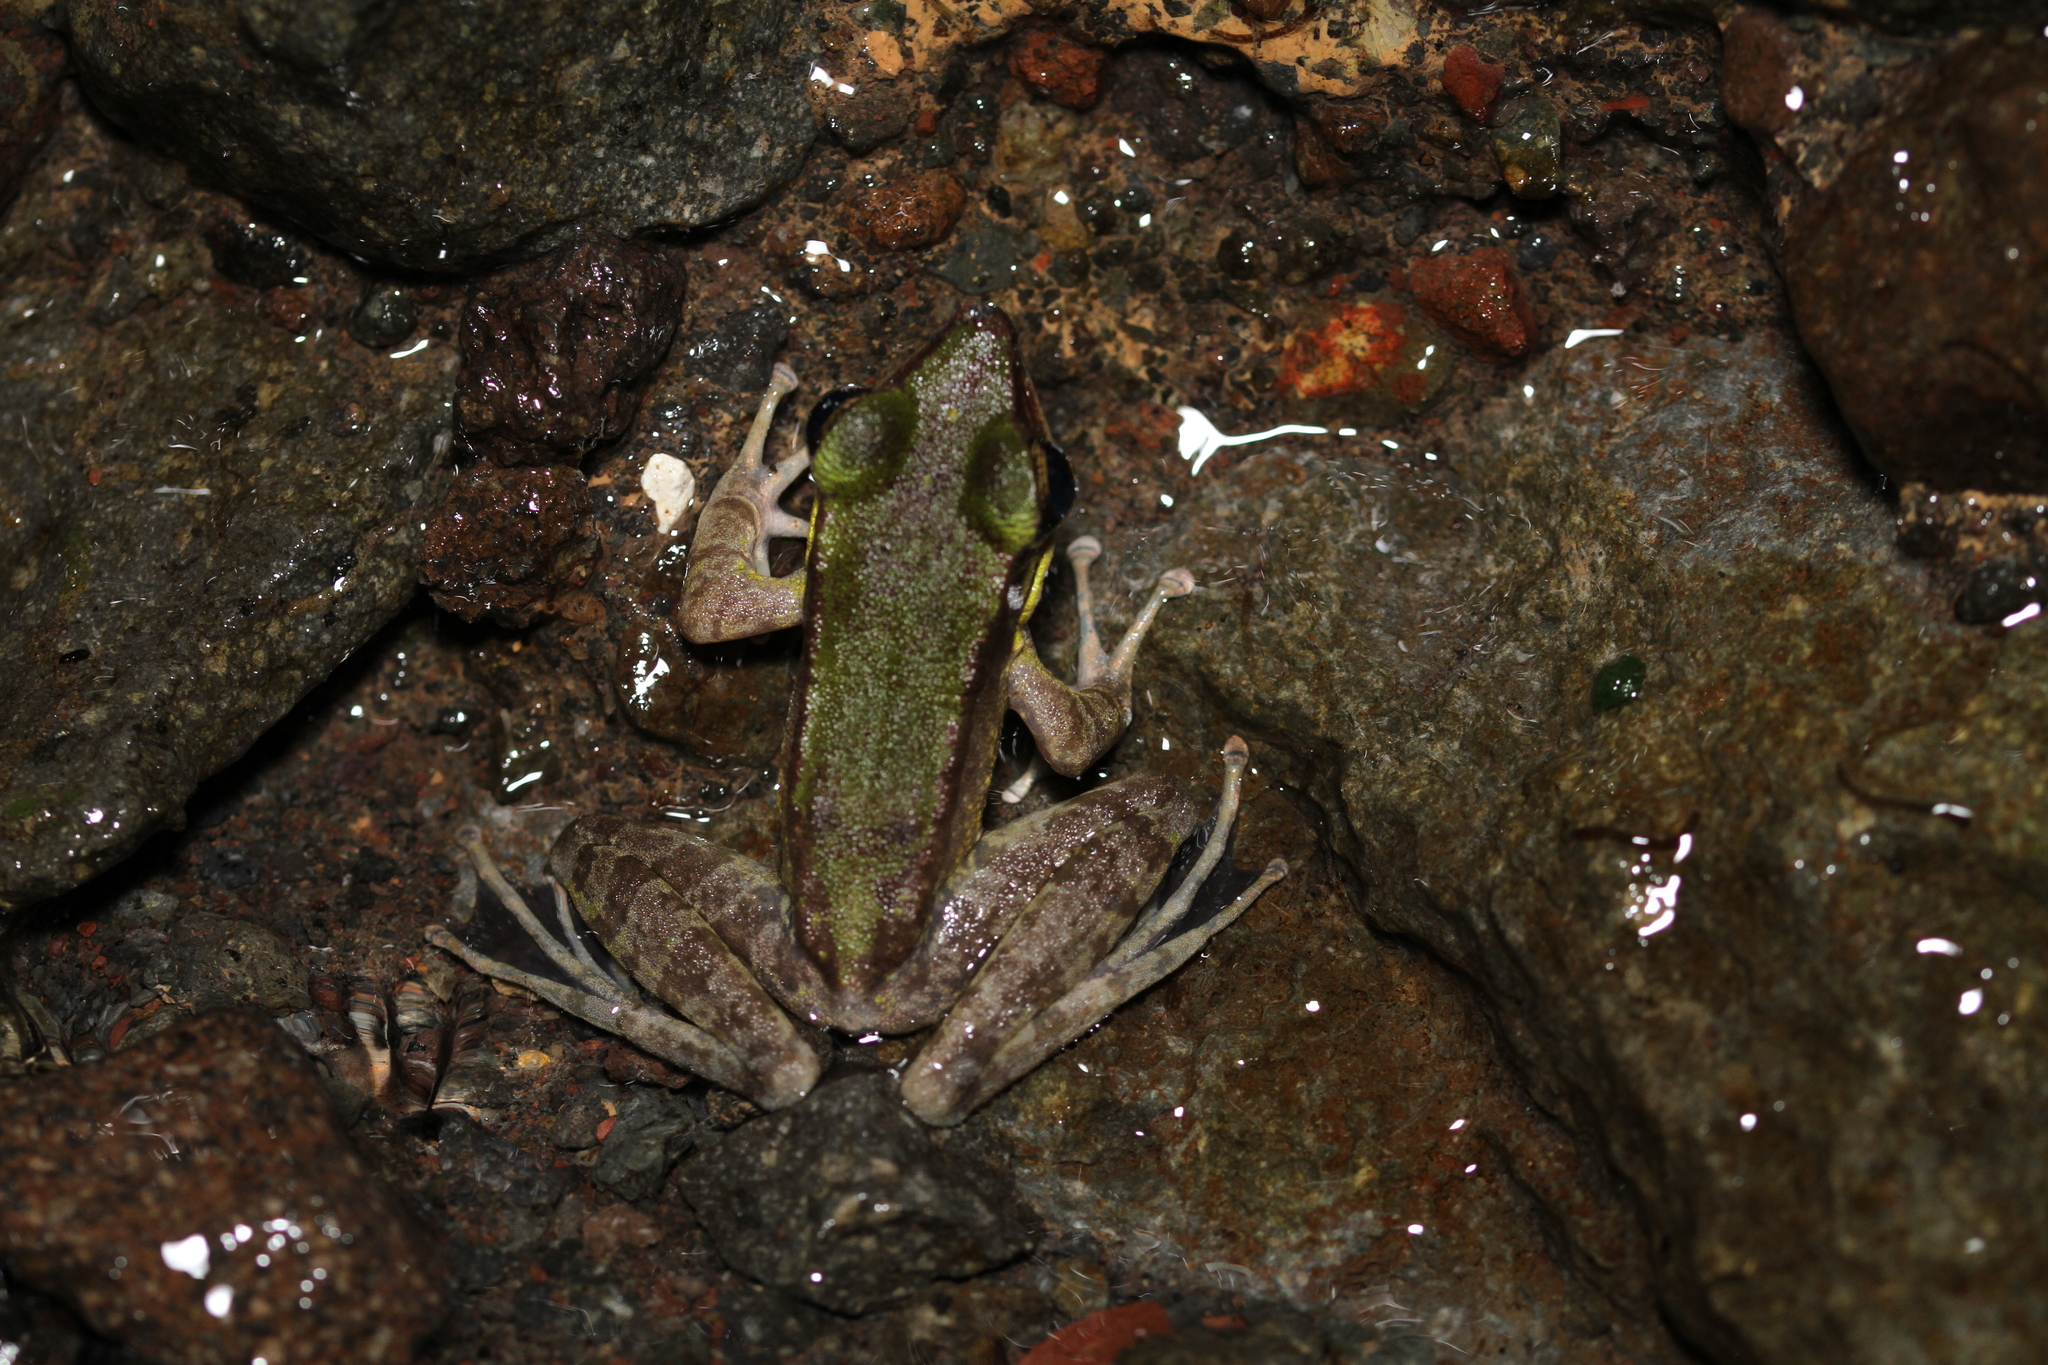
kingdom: Animalia
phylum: Chordata
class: Amphibia
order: Anura
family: Ranidae
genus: Odorrana
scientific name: Odorrana hosii
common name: Green tree frog
